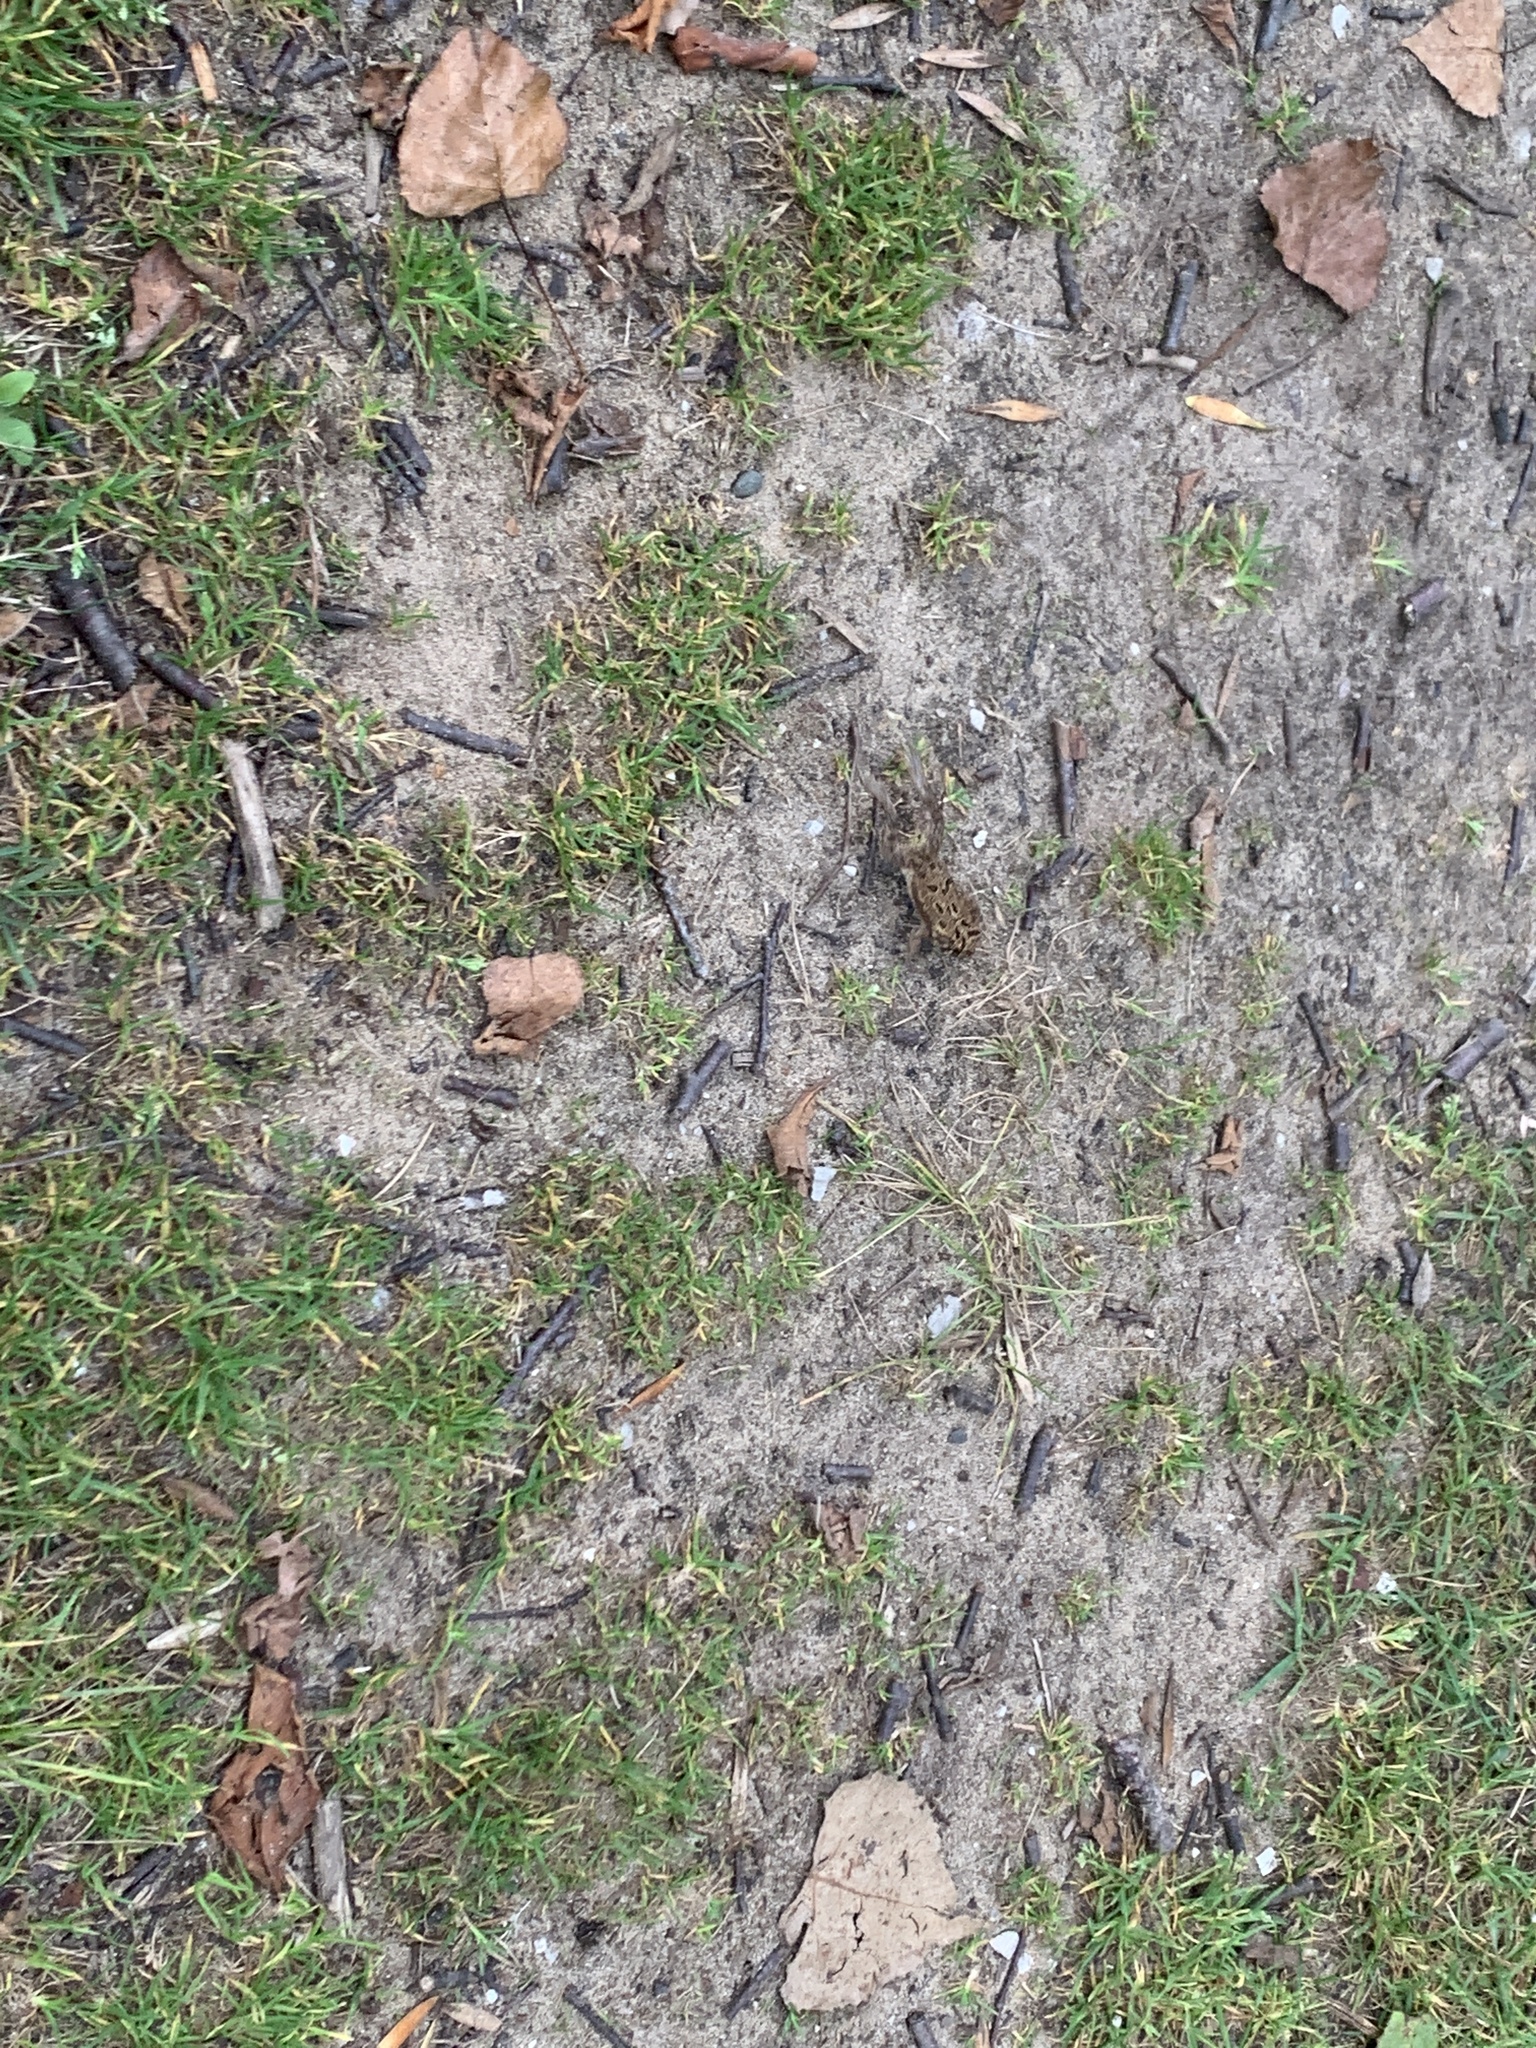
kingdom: Animalia
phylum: Chordata
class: Amphibia
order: Anura
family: Bufonidae
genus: Anaxyrus
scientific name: Anaxyrus americanus
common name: American toad
